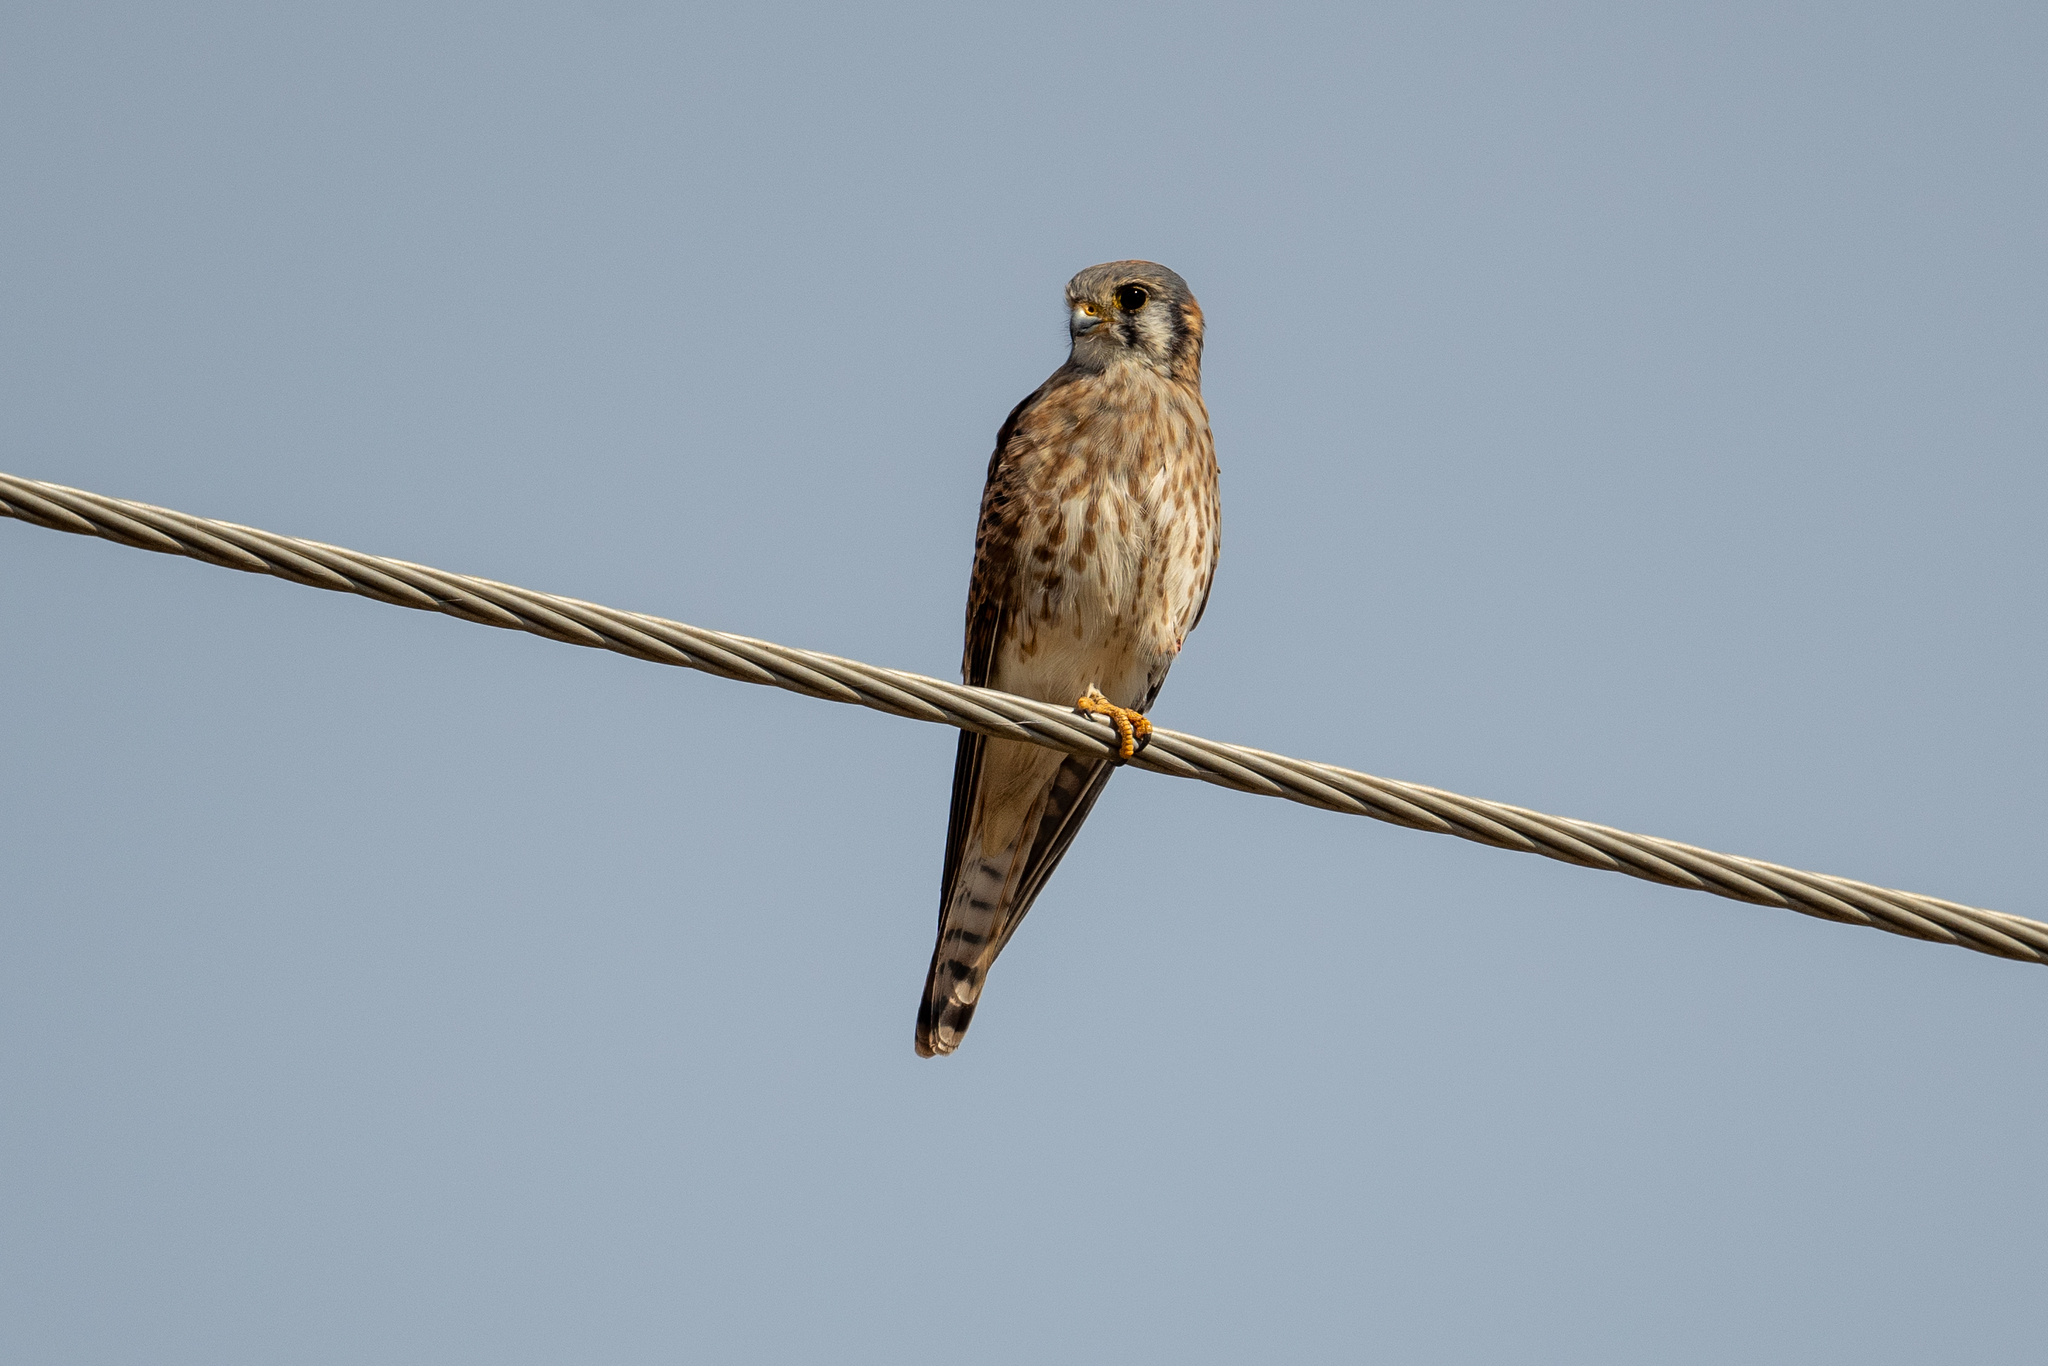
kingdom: Animalia
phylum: Chordata
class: Aves
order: Falconiformes
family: Falconidae
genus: Falco
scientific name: Falco sparverius
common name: American kestrel
